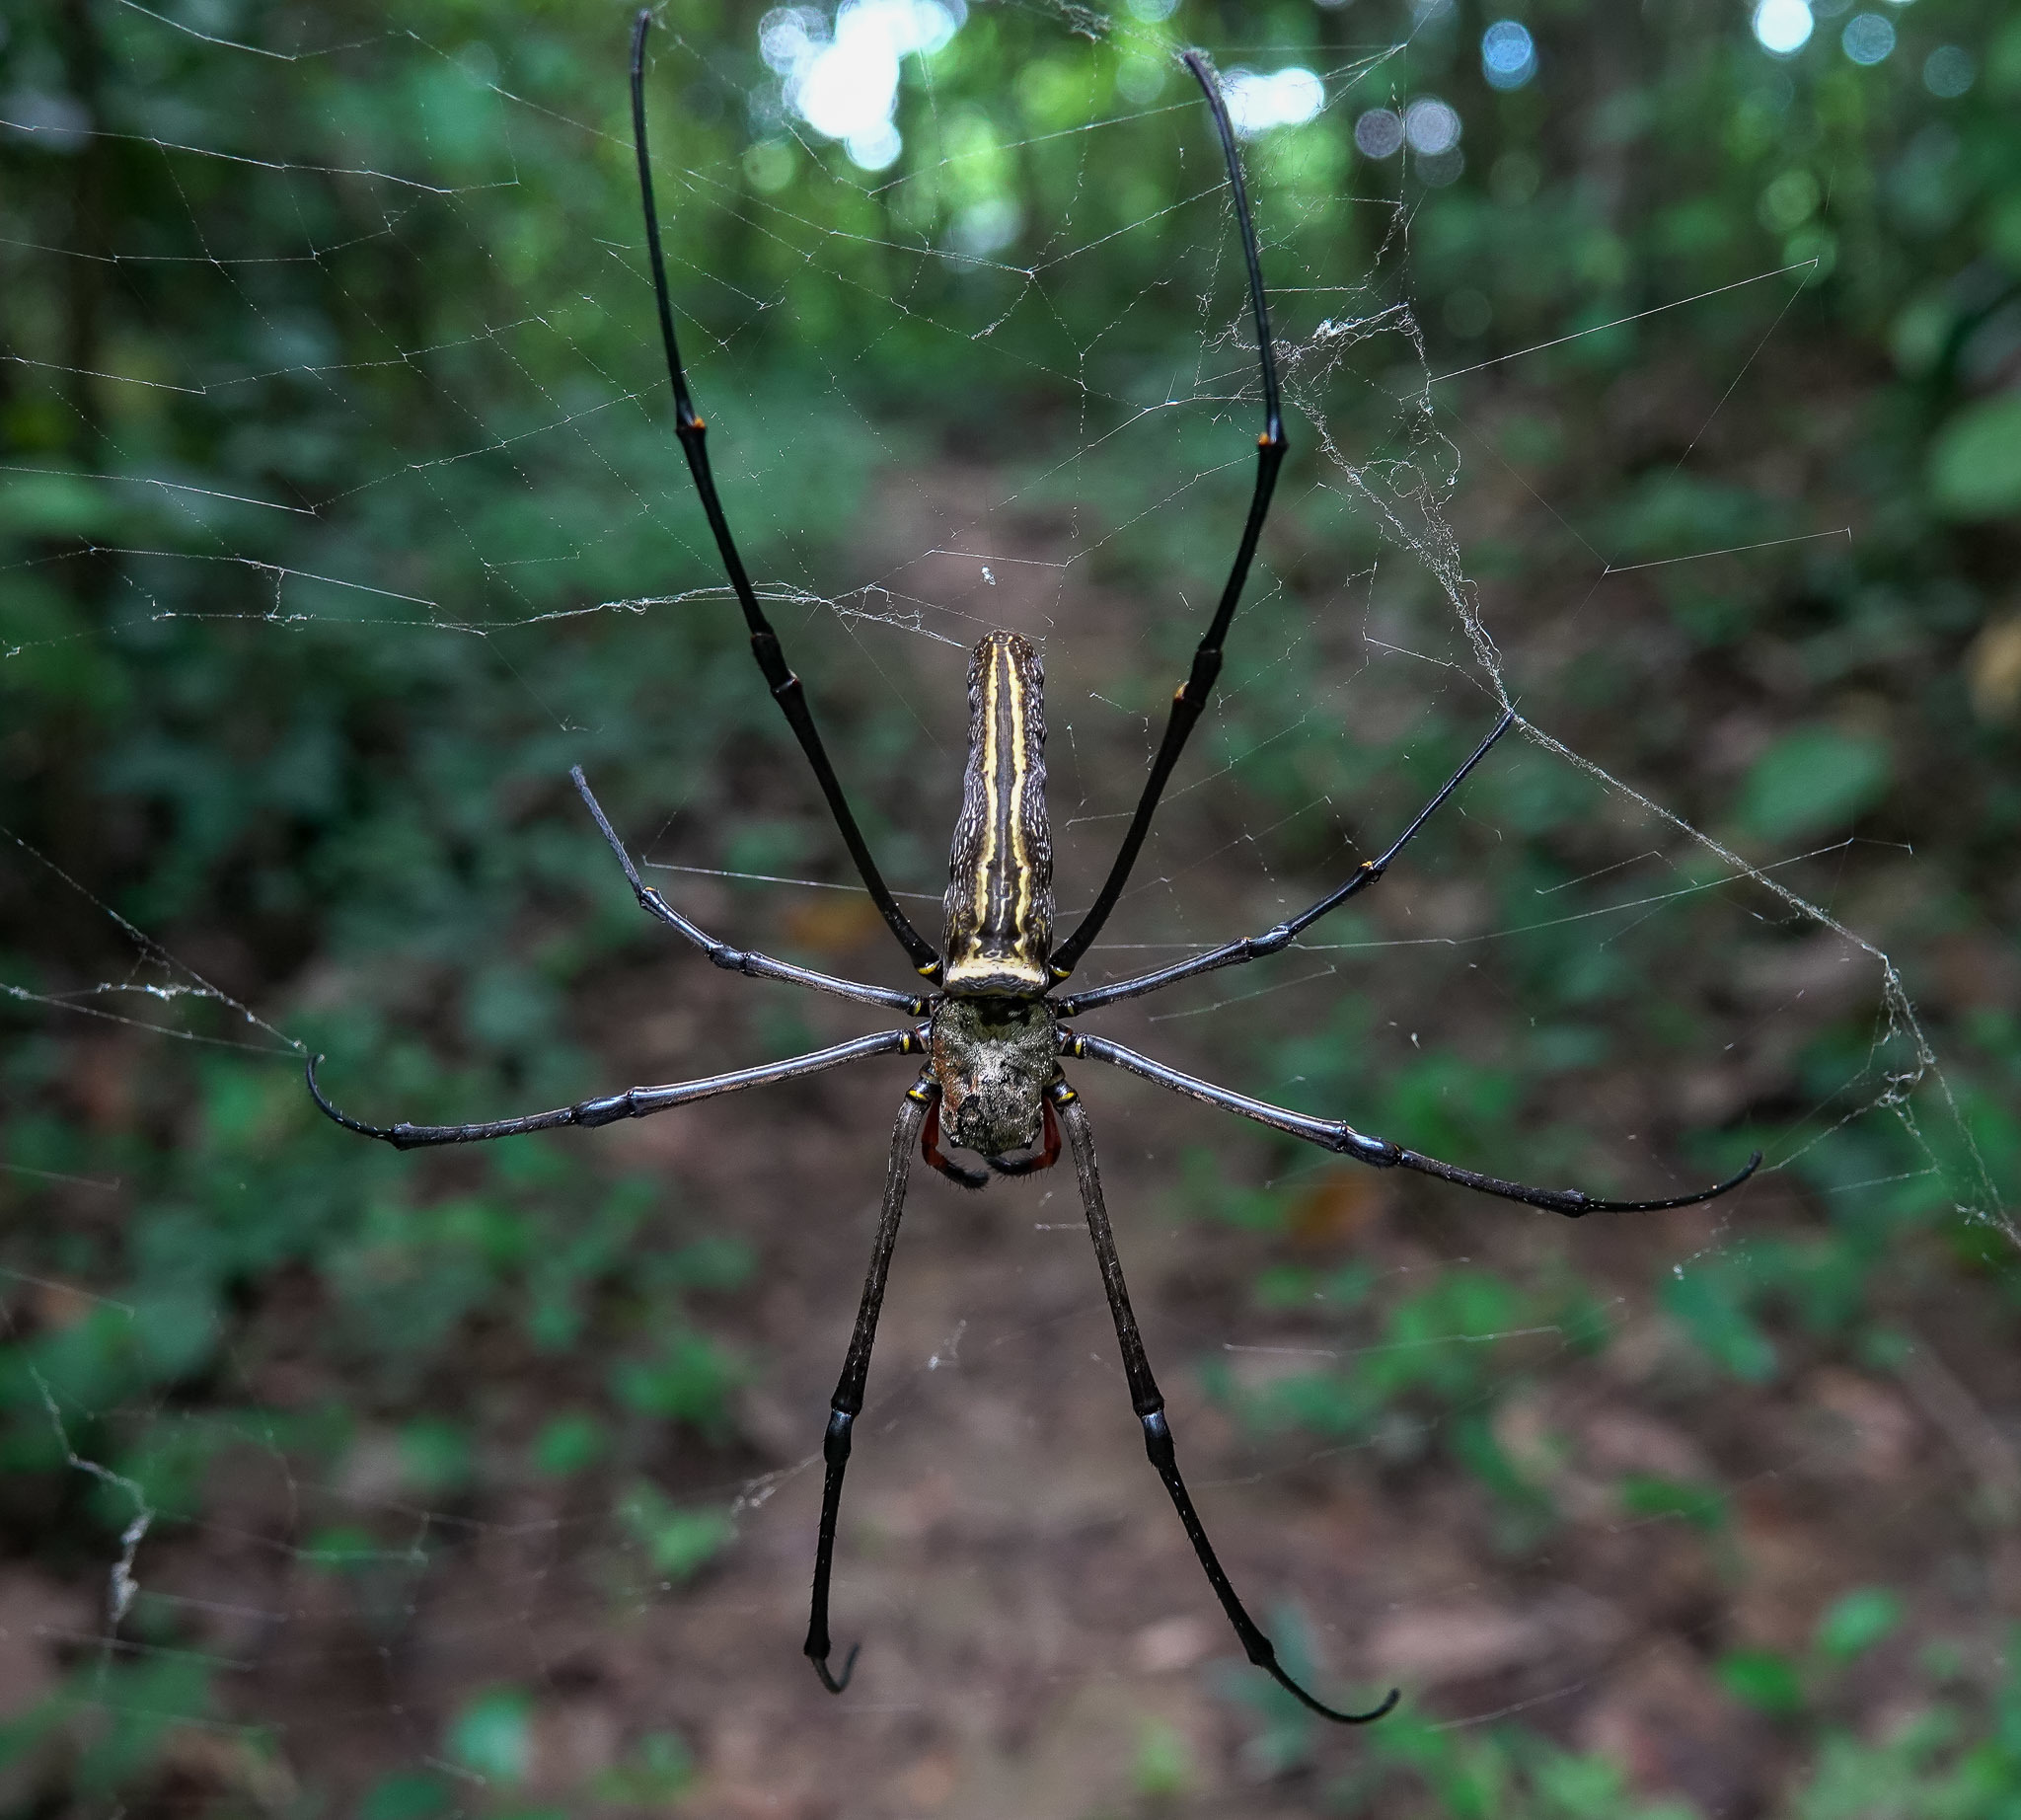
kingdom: Animalia
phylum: Arthropoda
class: Arachnida
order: Araneae
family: Araneidae
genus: Nephila
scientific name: Nephila pilipes
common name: Giant golden orb weaver
